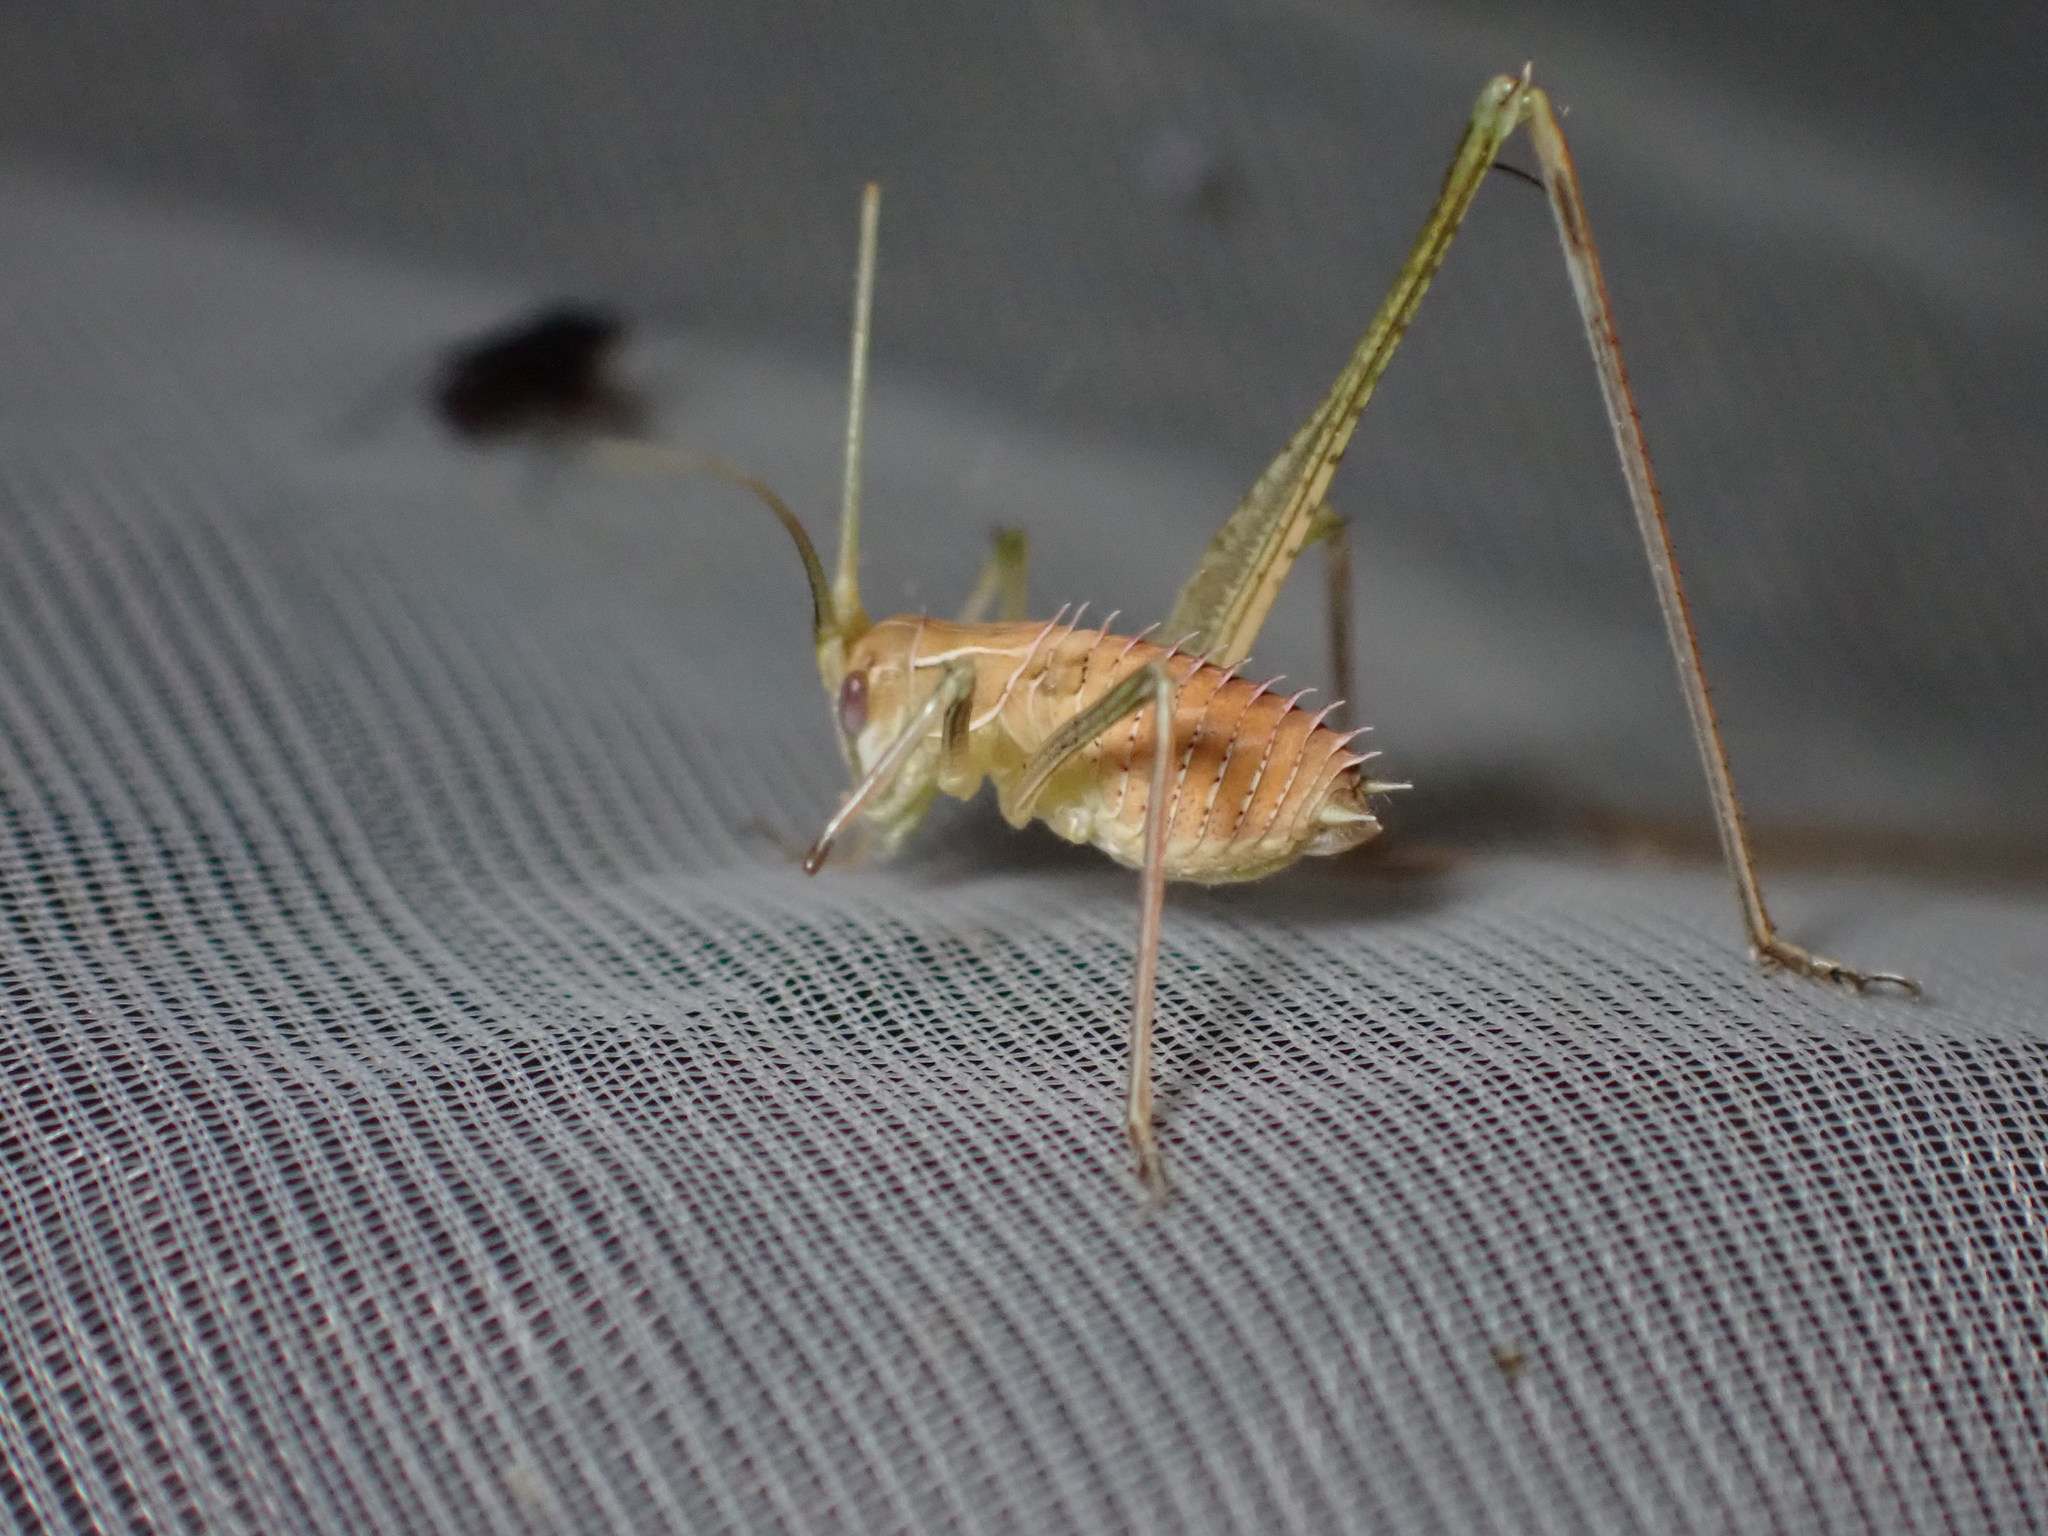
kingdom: Animalia
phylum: Arthropoda
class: Insecta
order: Orthoptera
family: Tettigoniidae
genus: Tylopsis
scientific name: Tylopsis lilifolia
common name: Lily bush-cricket
